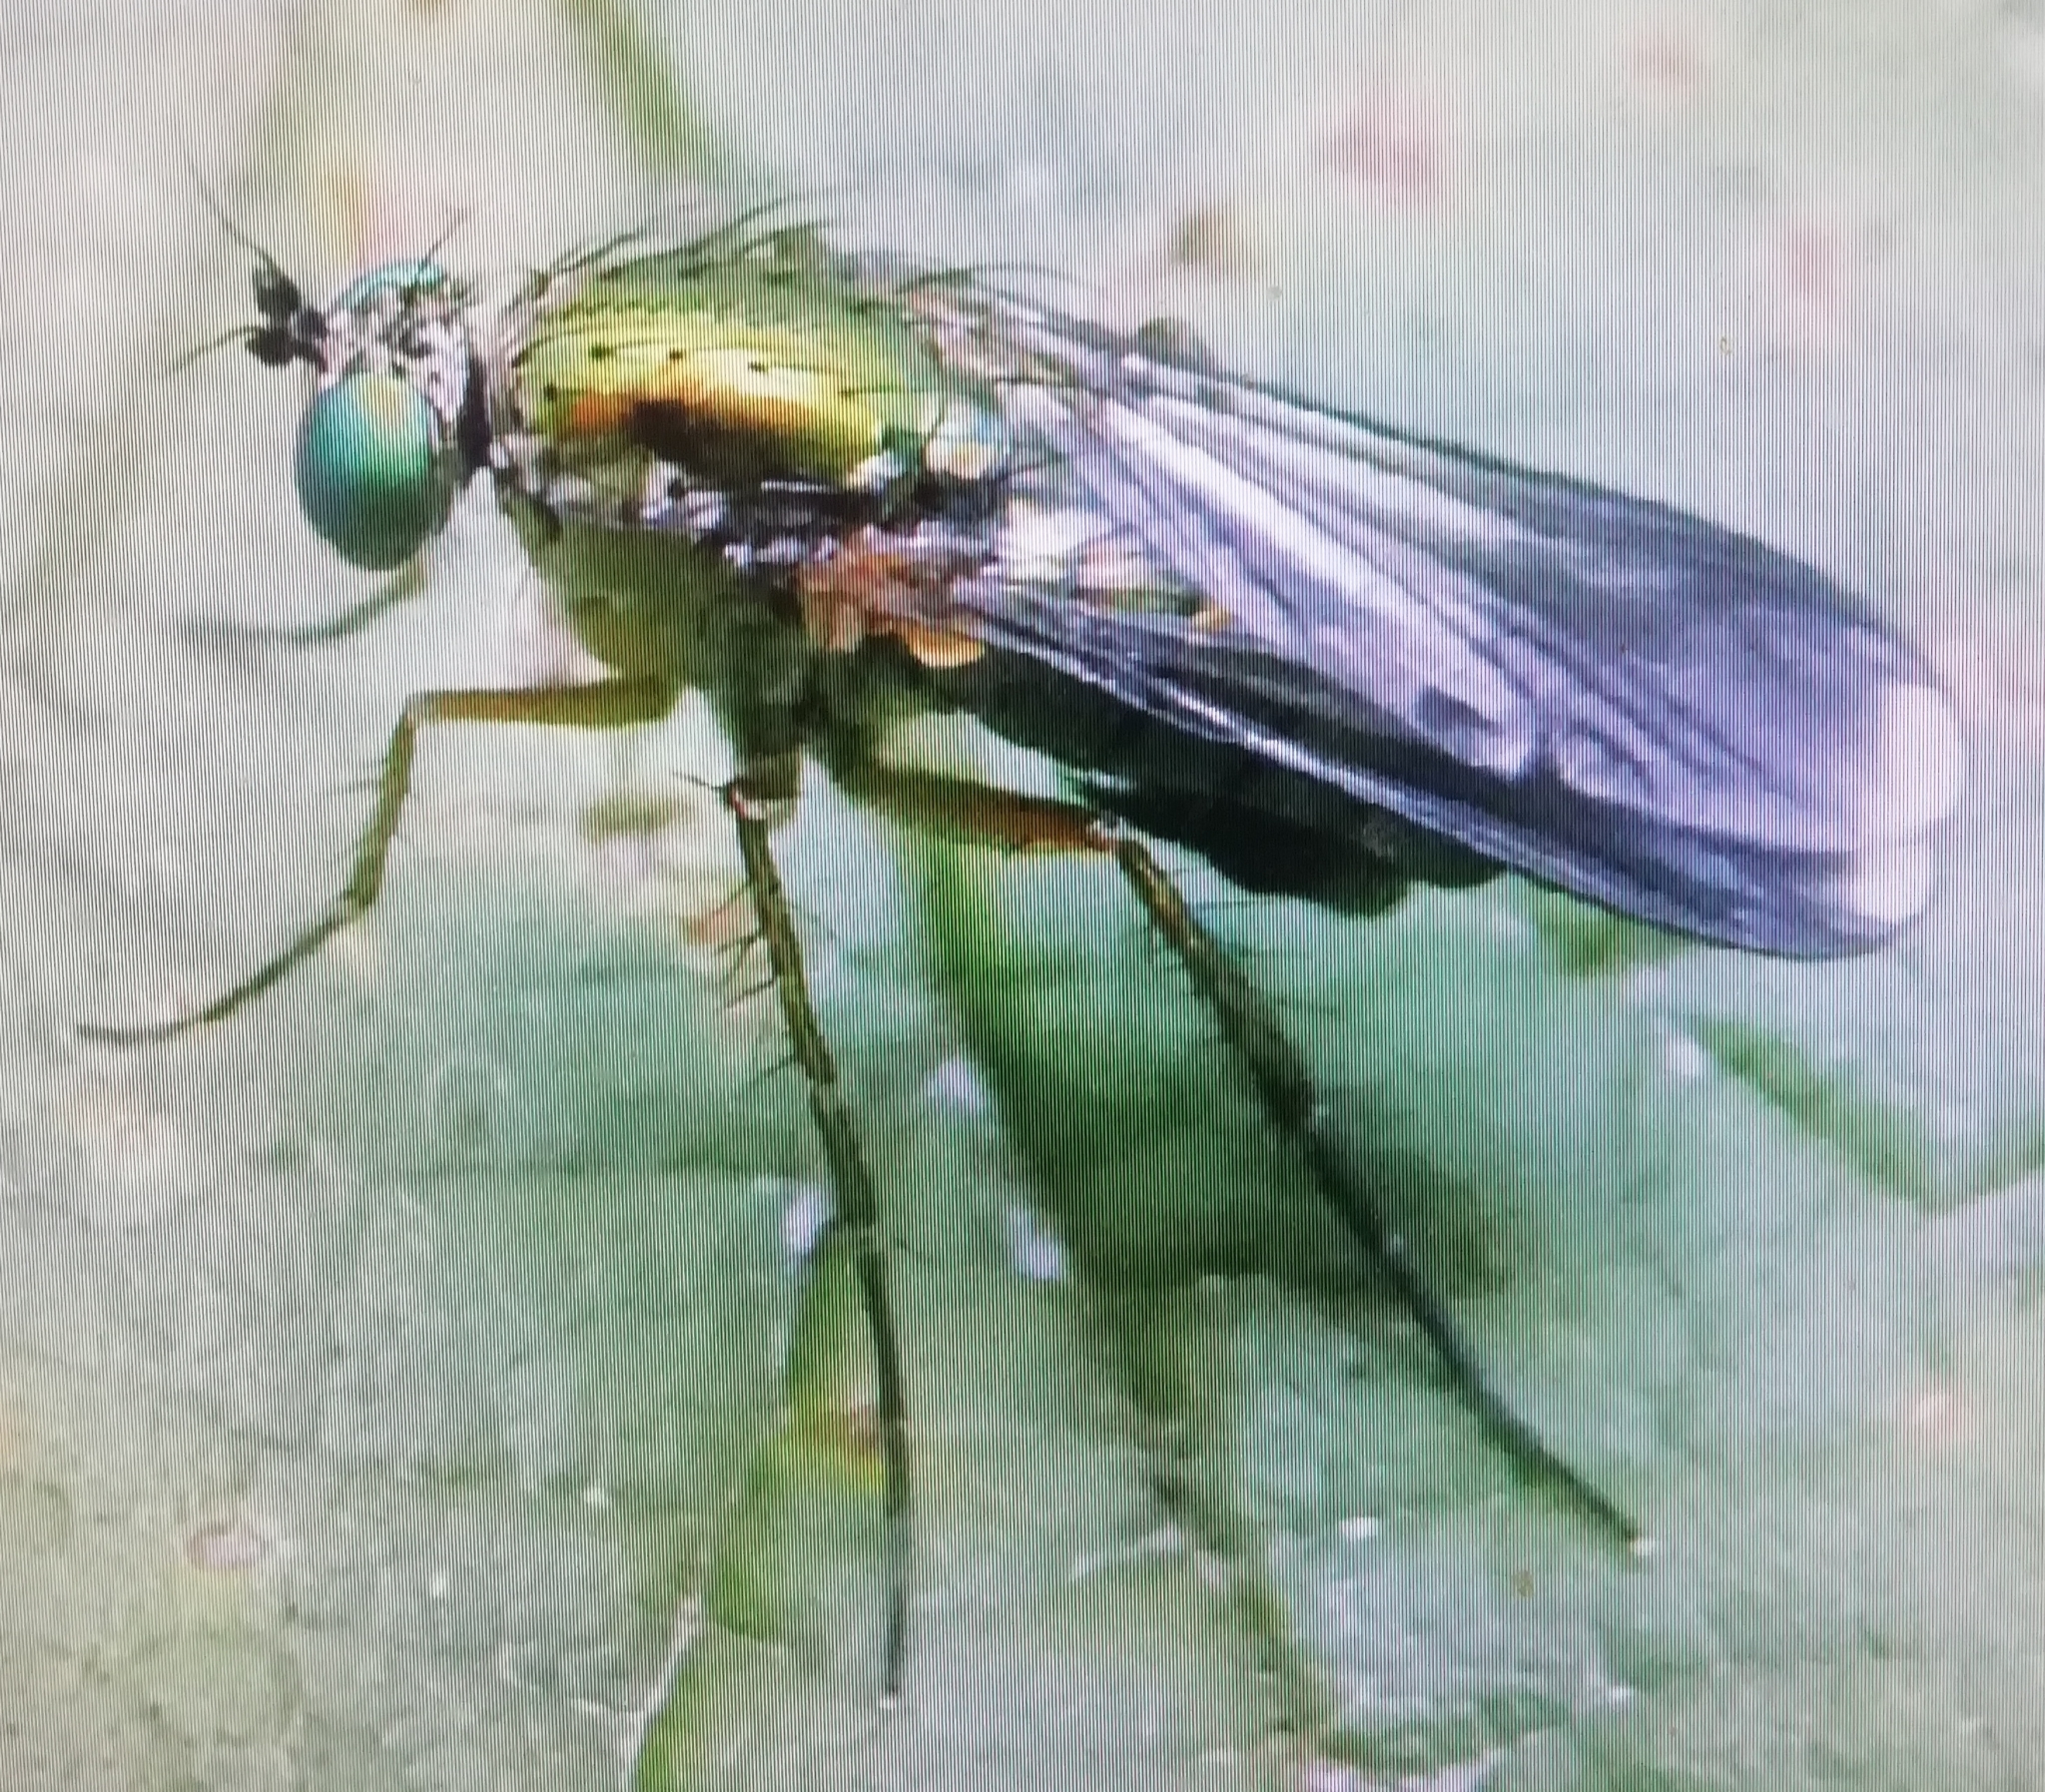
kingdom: Animalia
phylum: Arthropoda
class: Insecta
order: Diptera
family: Dolichopodidae
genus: Poecilobothrus
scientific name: Poecilobothrus nobilitatus
